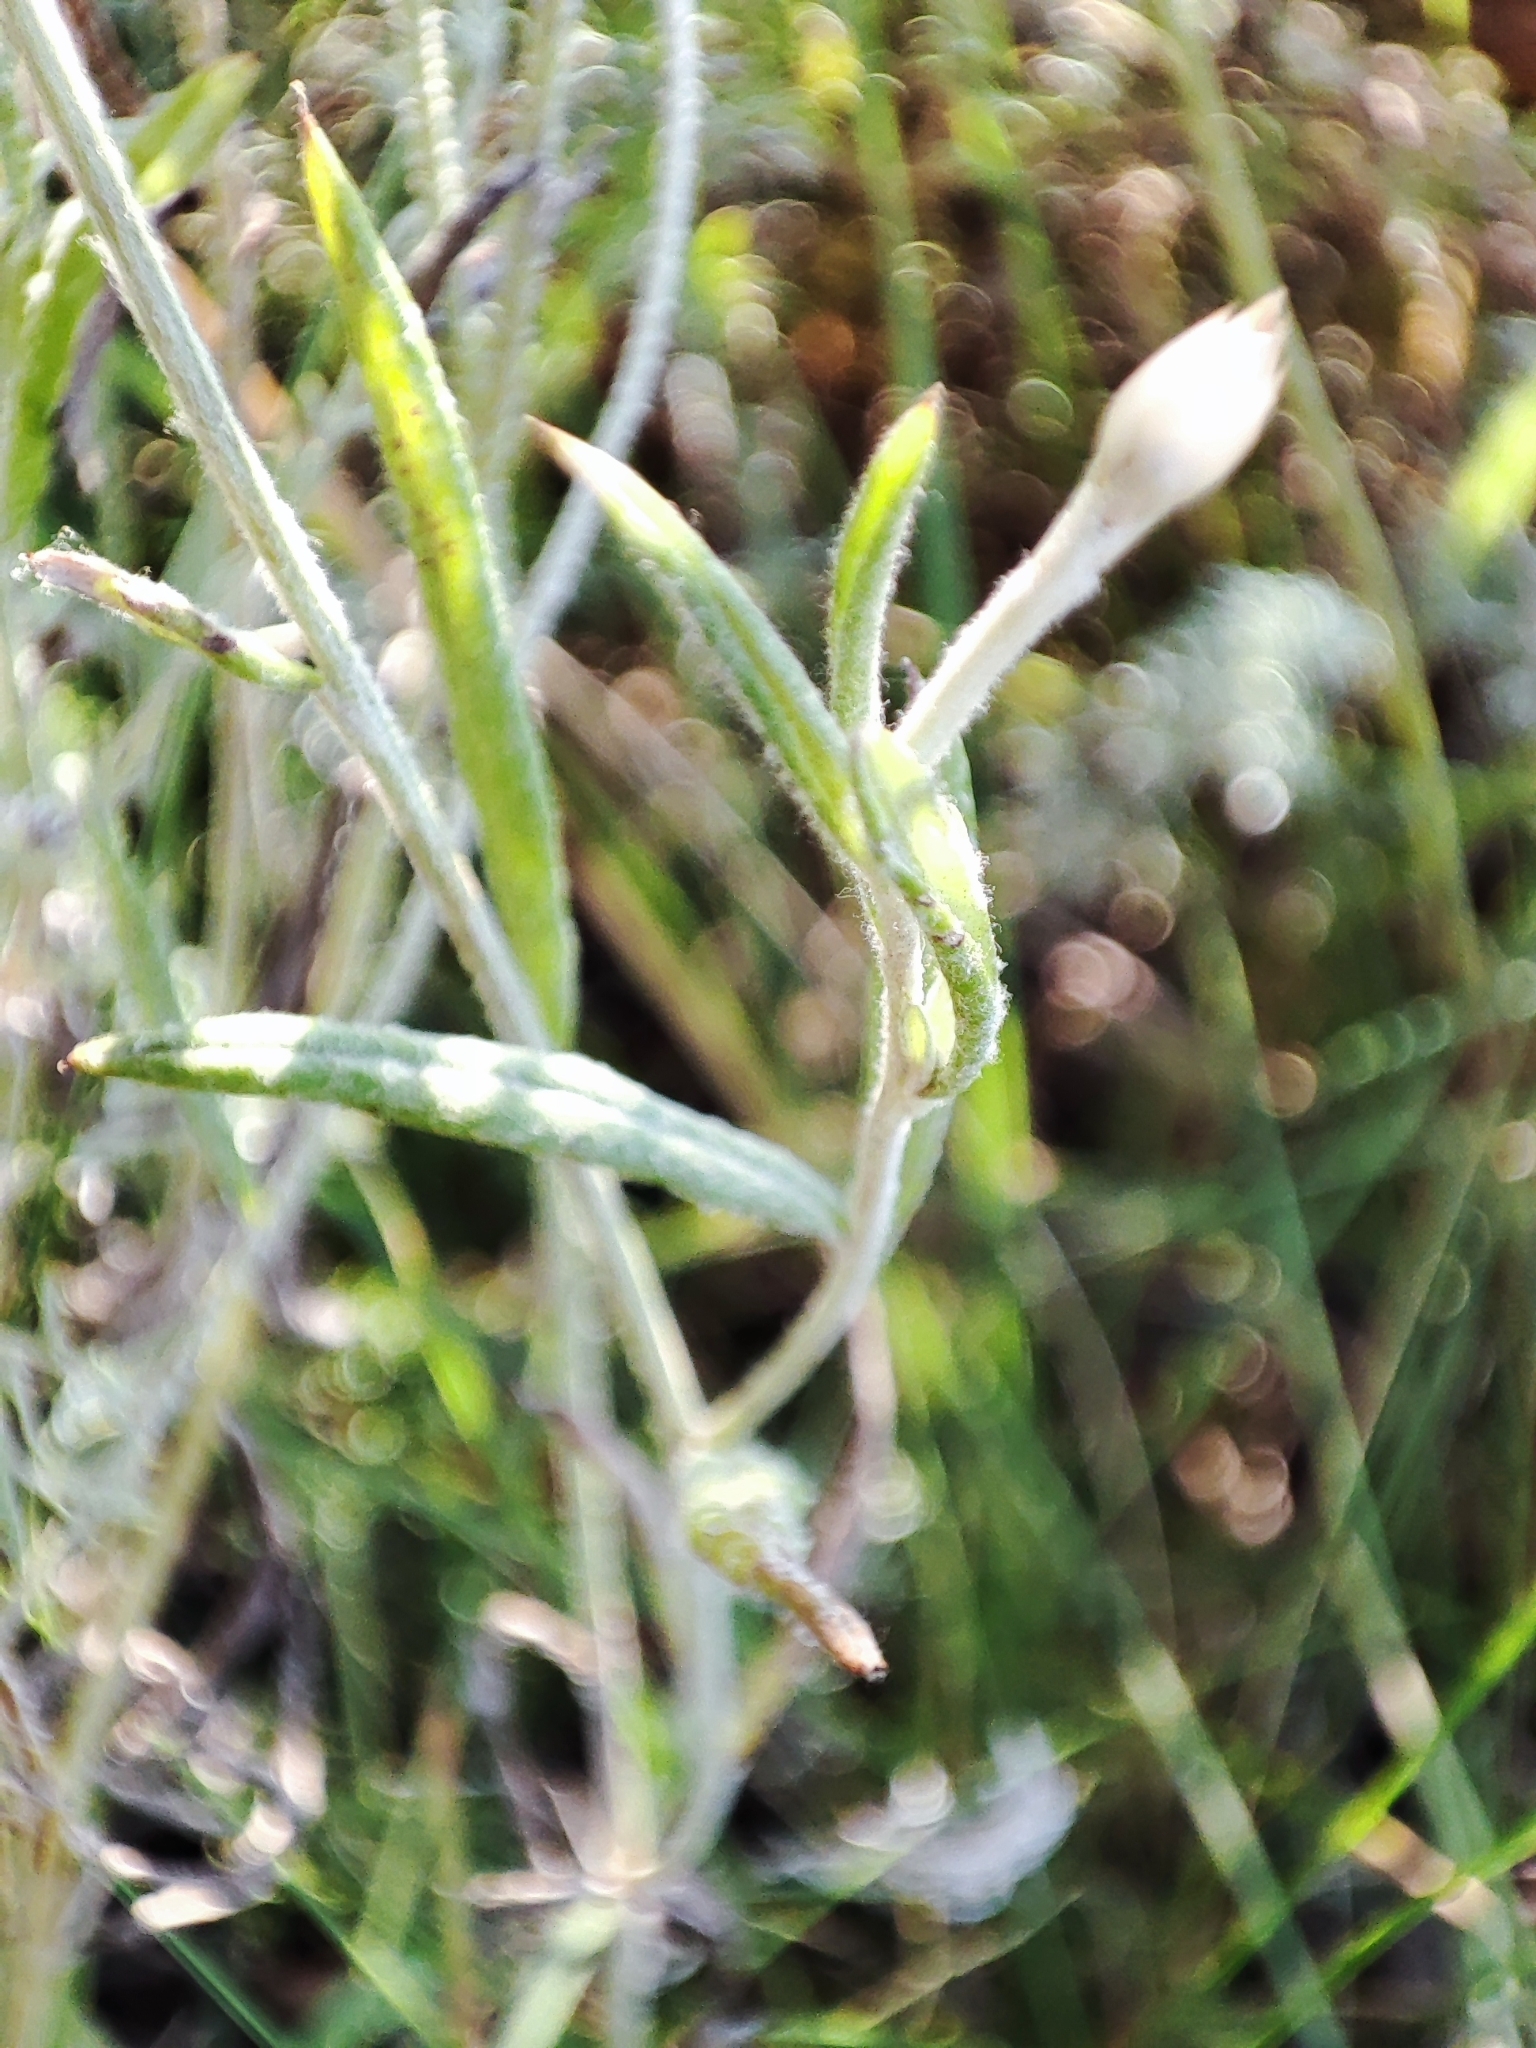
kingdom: Plantae
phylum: Tracheophyta
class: Magnoliopsida
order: Asterales
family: Asteraceae
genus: Xeranthemum
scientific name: Xeranthemum annuum
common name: Immortelle
